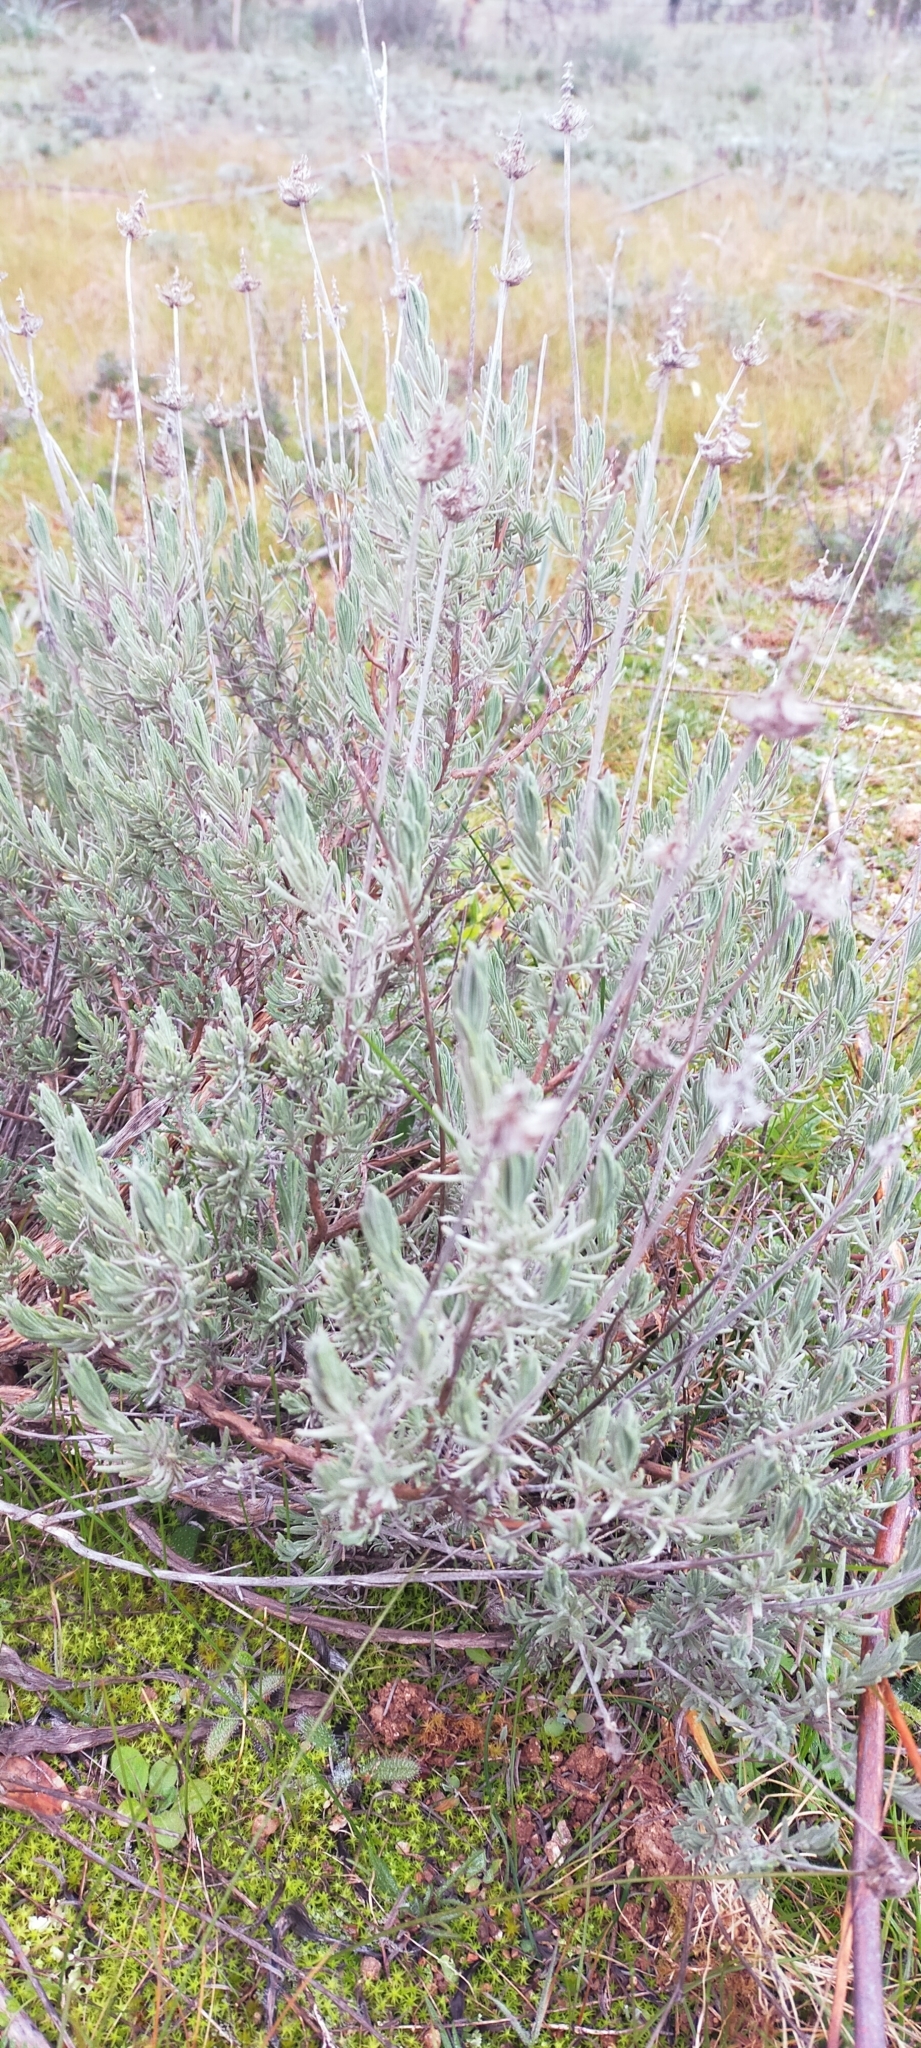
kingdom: Plantae
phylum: Tracheophyta
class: Magnoliopsida
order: Lamiales
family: Lamiaceae
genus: Lavandula
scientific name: Lavandula pedunculata
